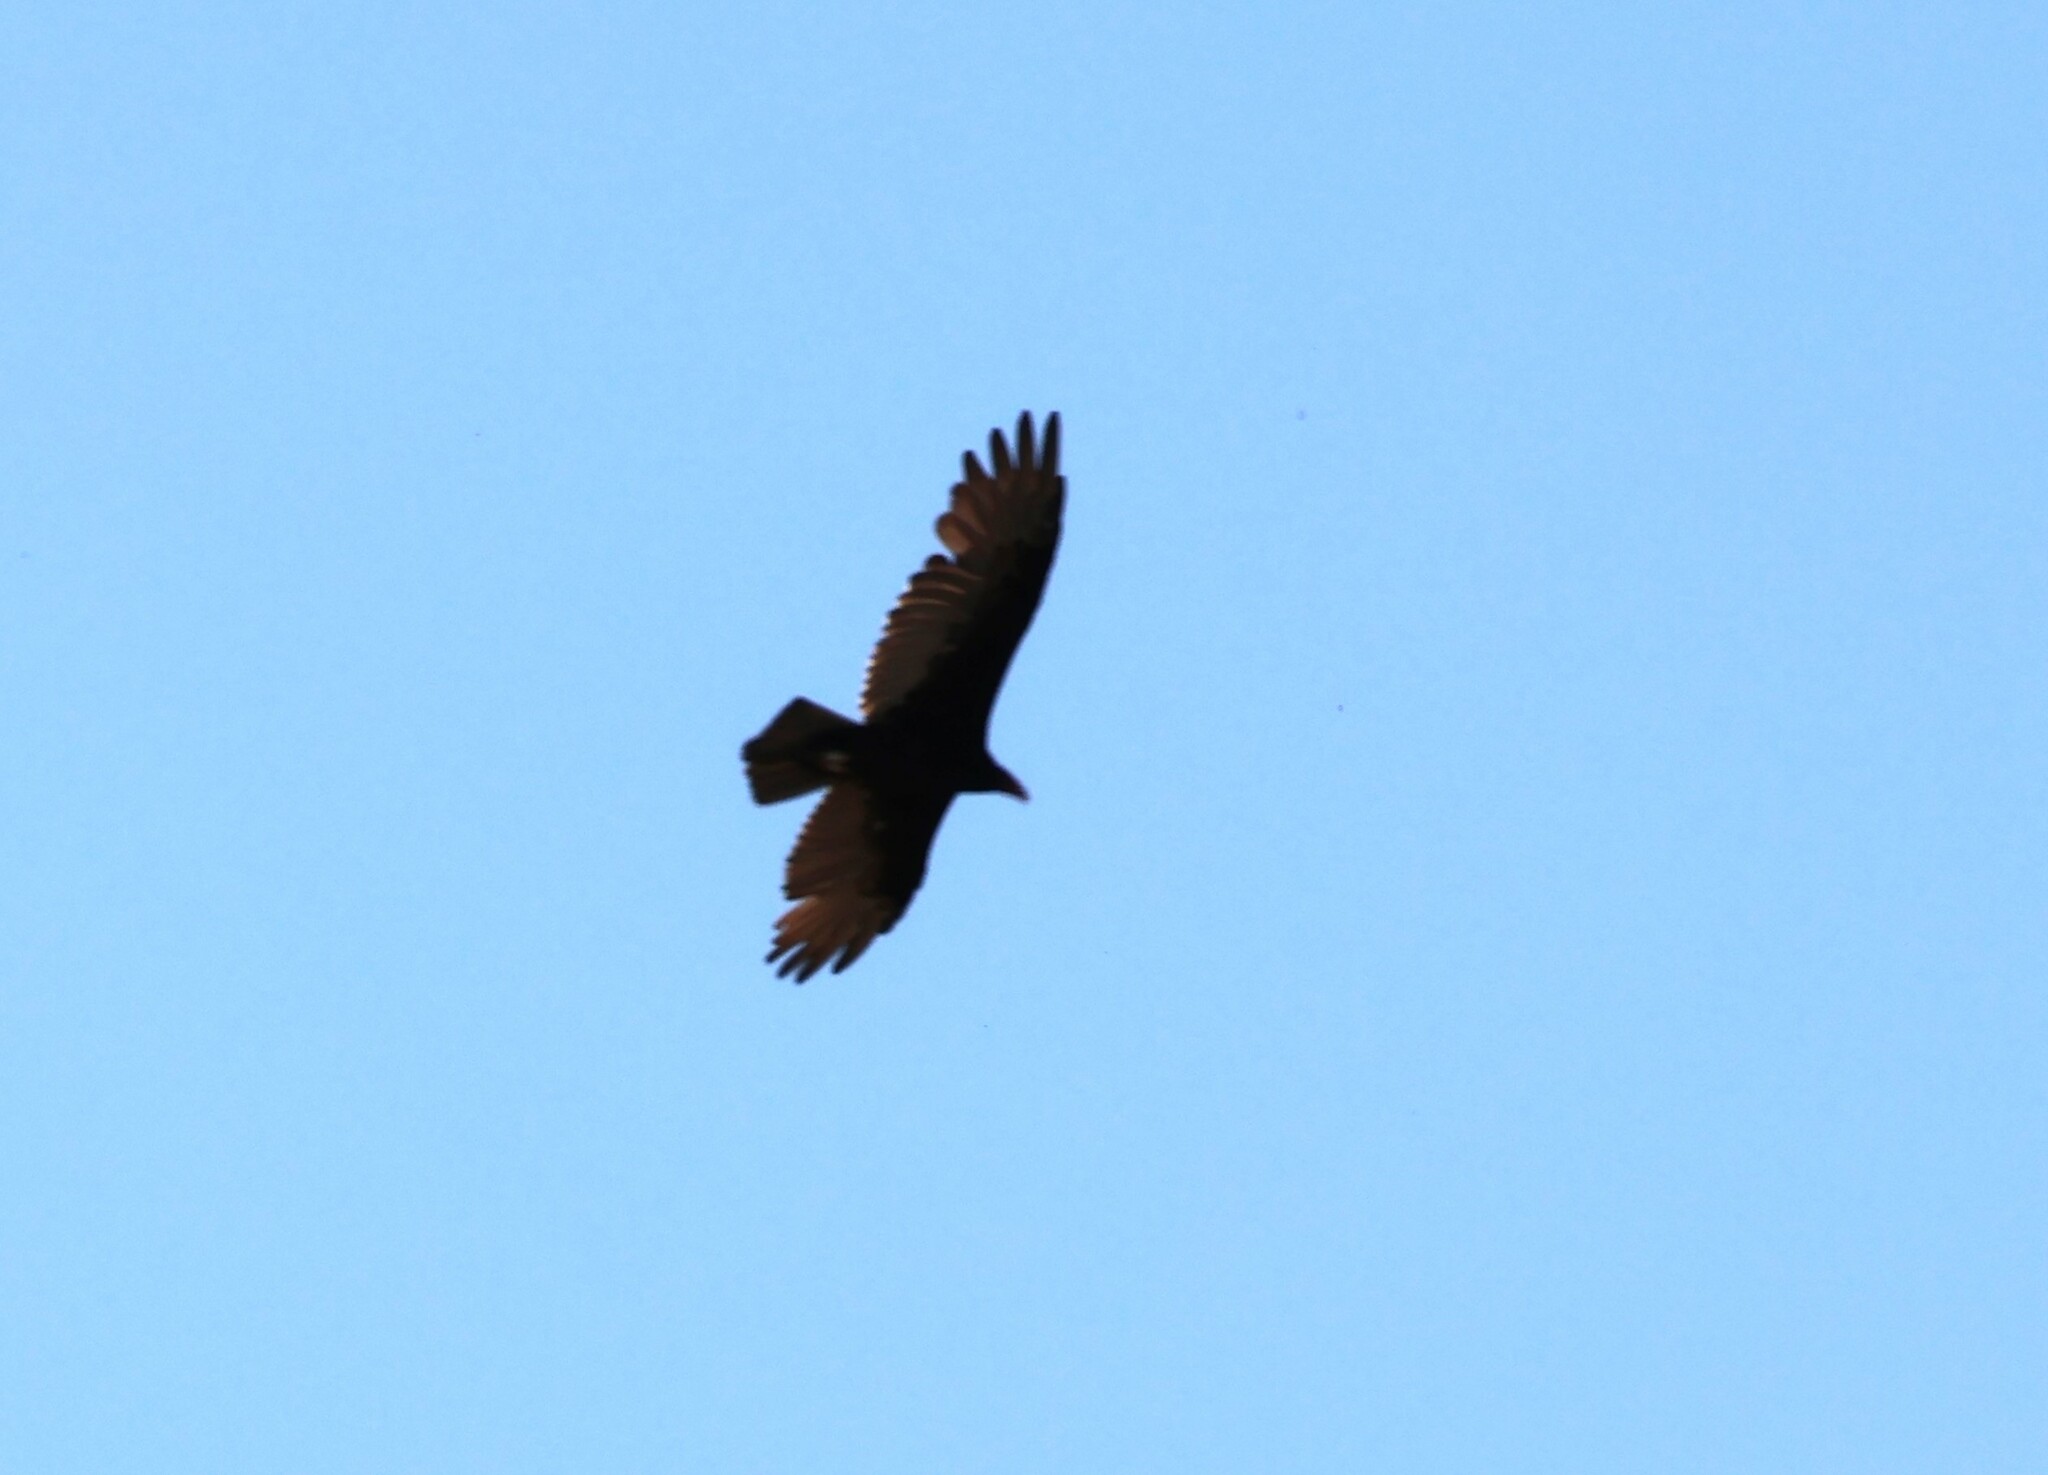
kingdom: Animalia
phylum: Chordata
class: Aves
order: Accipitriformes
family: Cathartidae
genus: Cathartes
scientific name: Cathartes aura
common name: Turkey vulture
